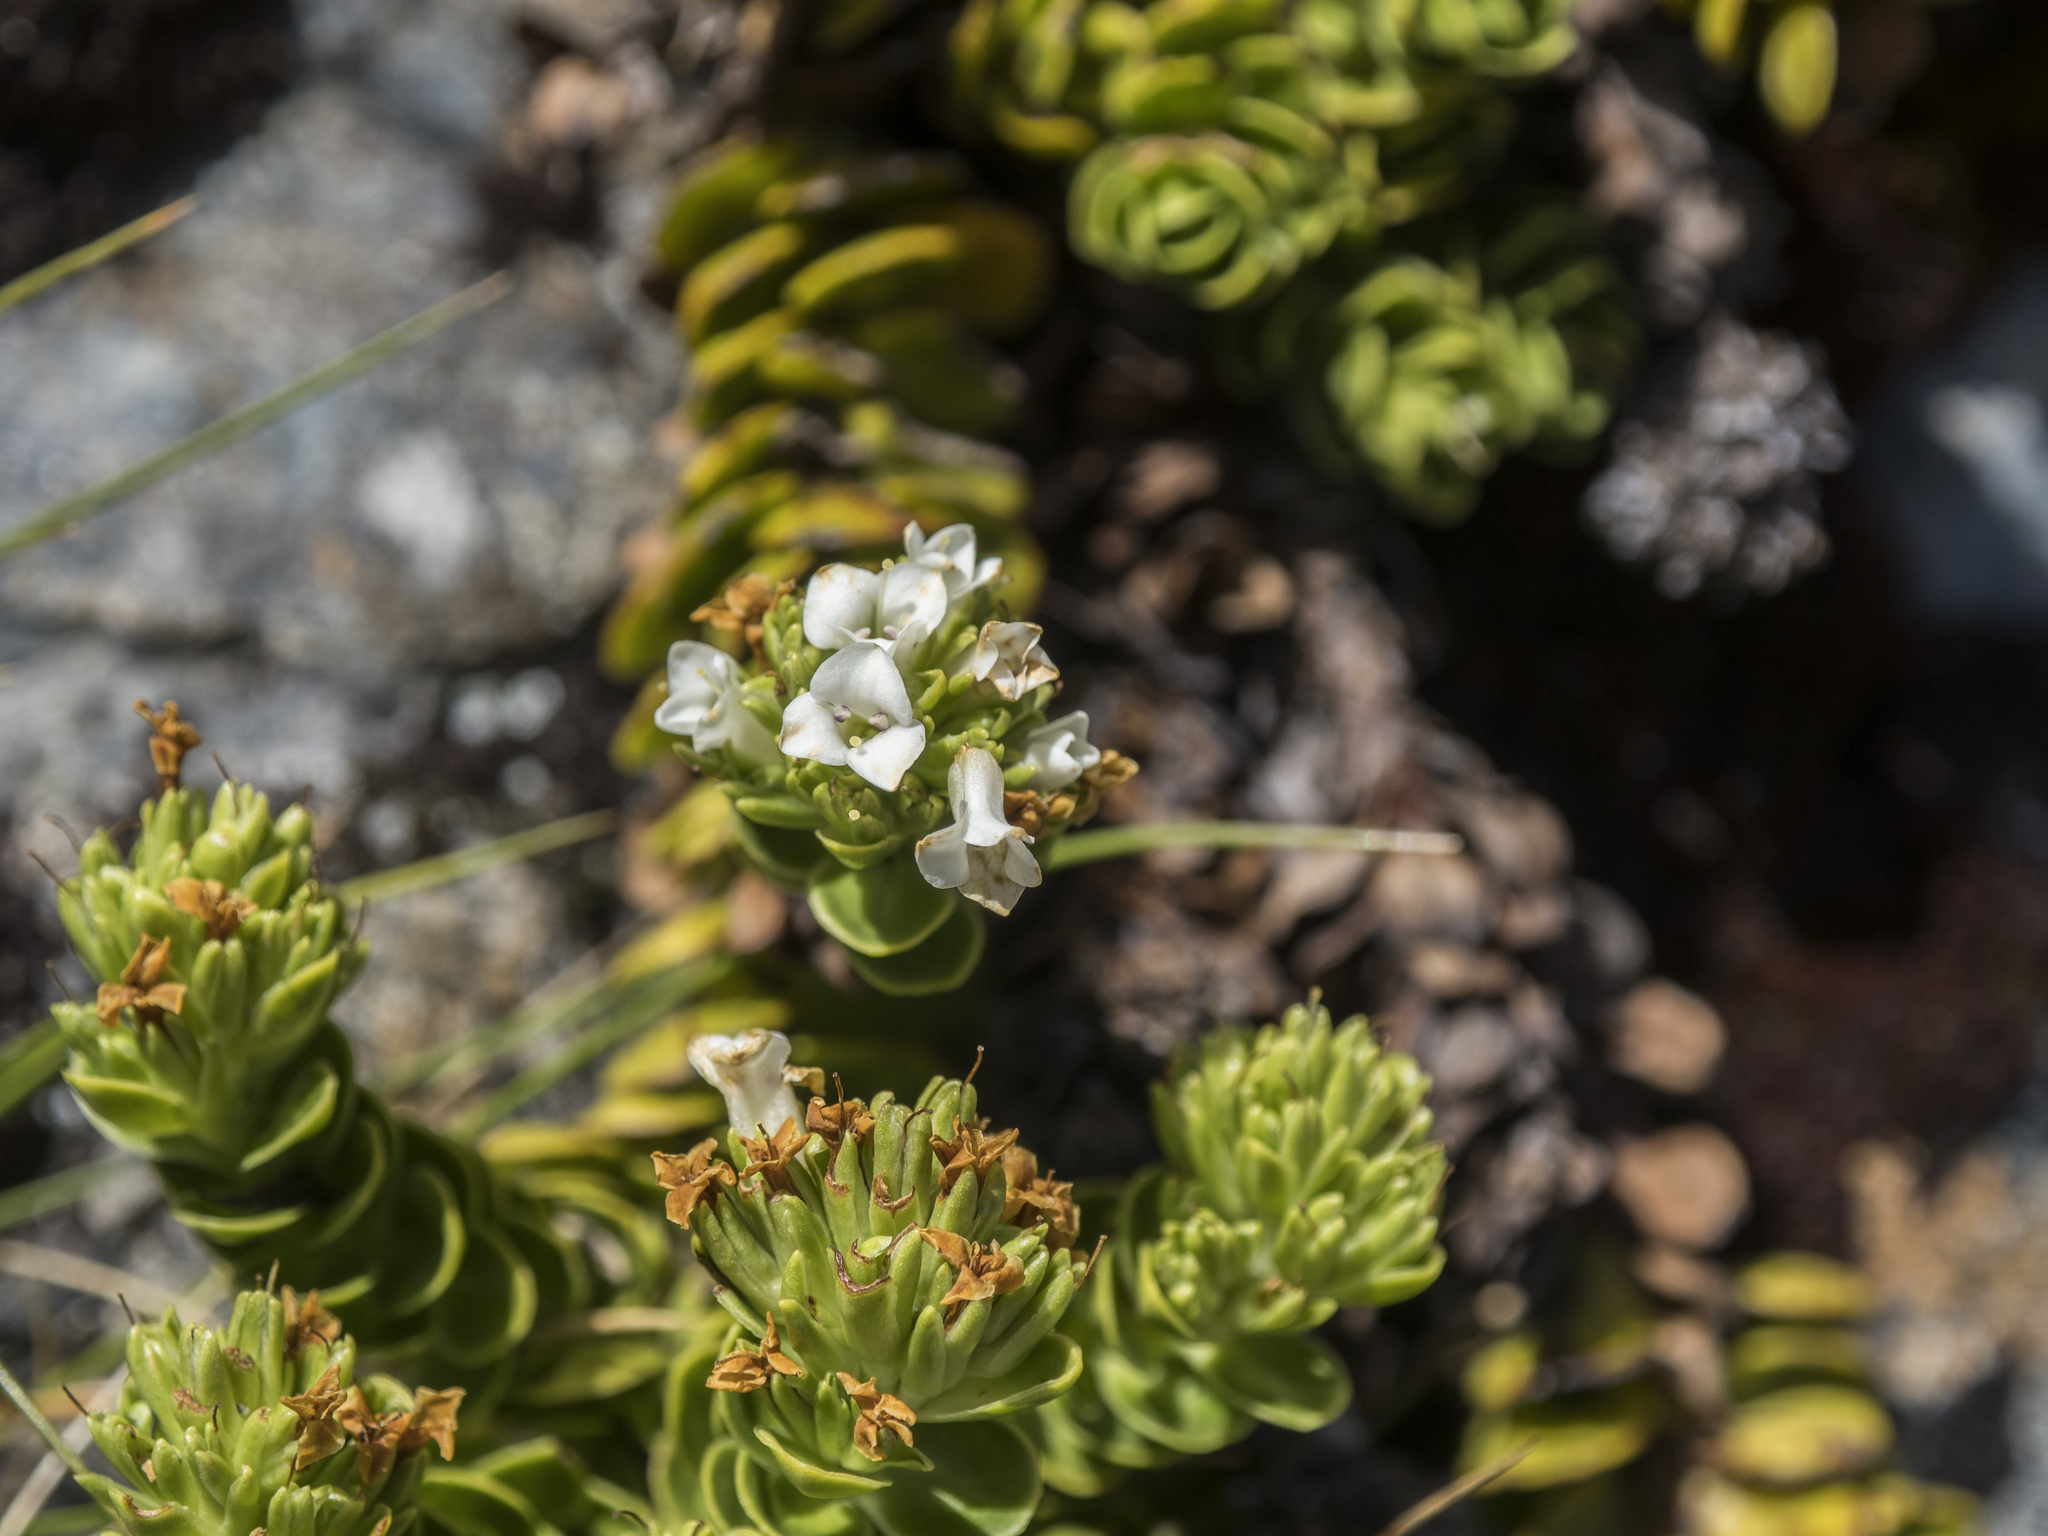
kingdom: Plantae
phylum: Tracheophyta
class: Magnoliopsida
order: Lamiales
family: Plantaginaceae
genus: Veronica
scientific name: Veronica macrocalyx
